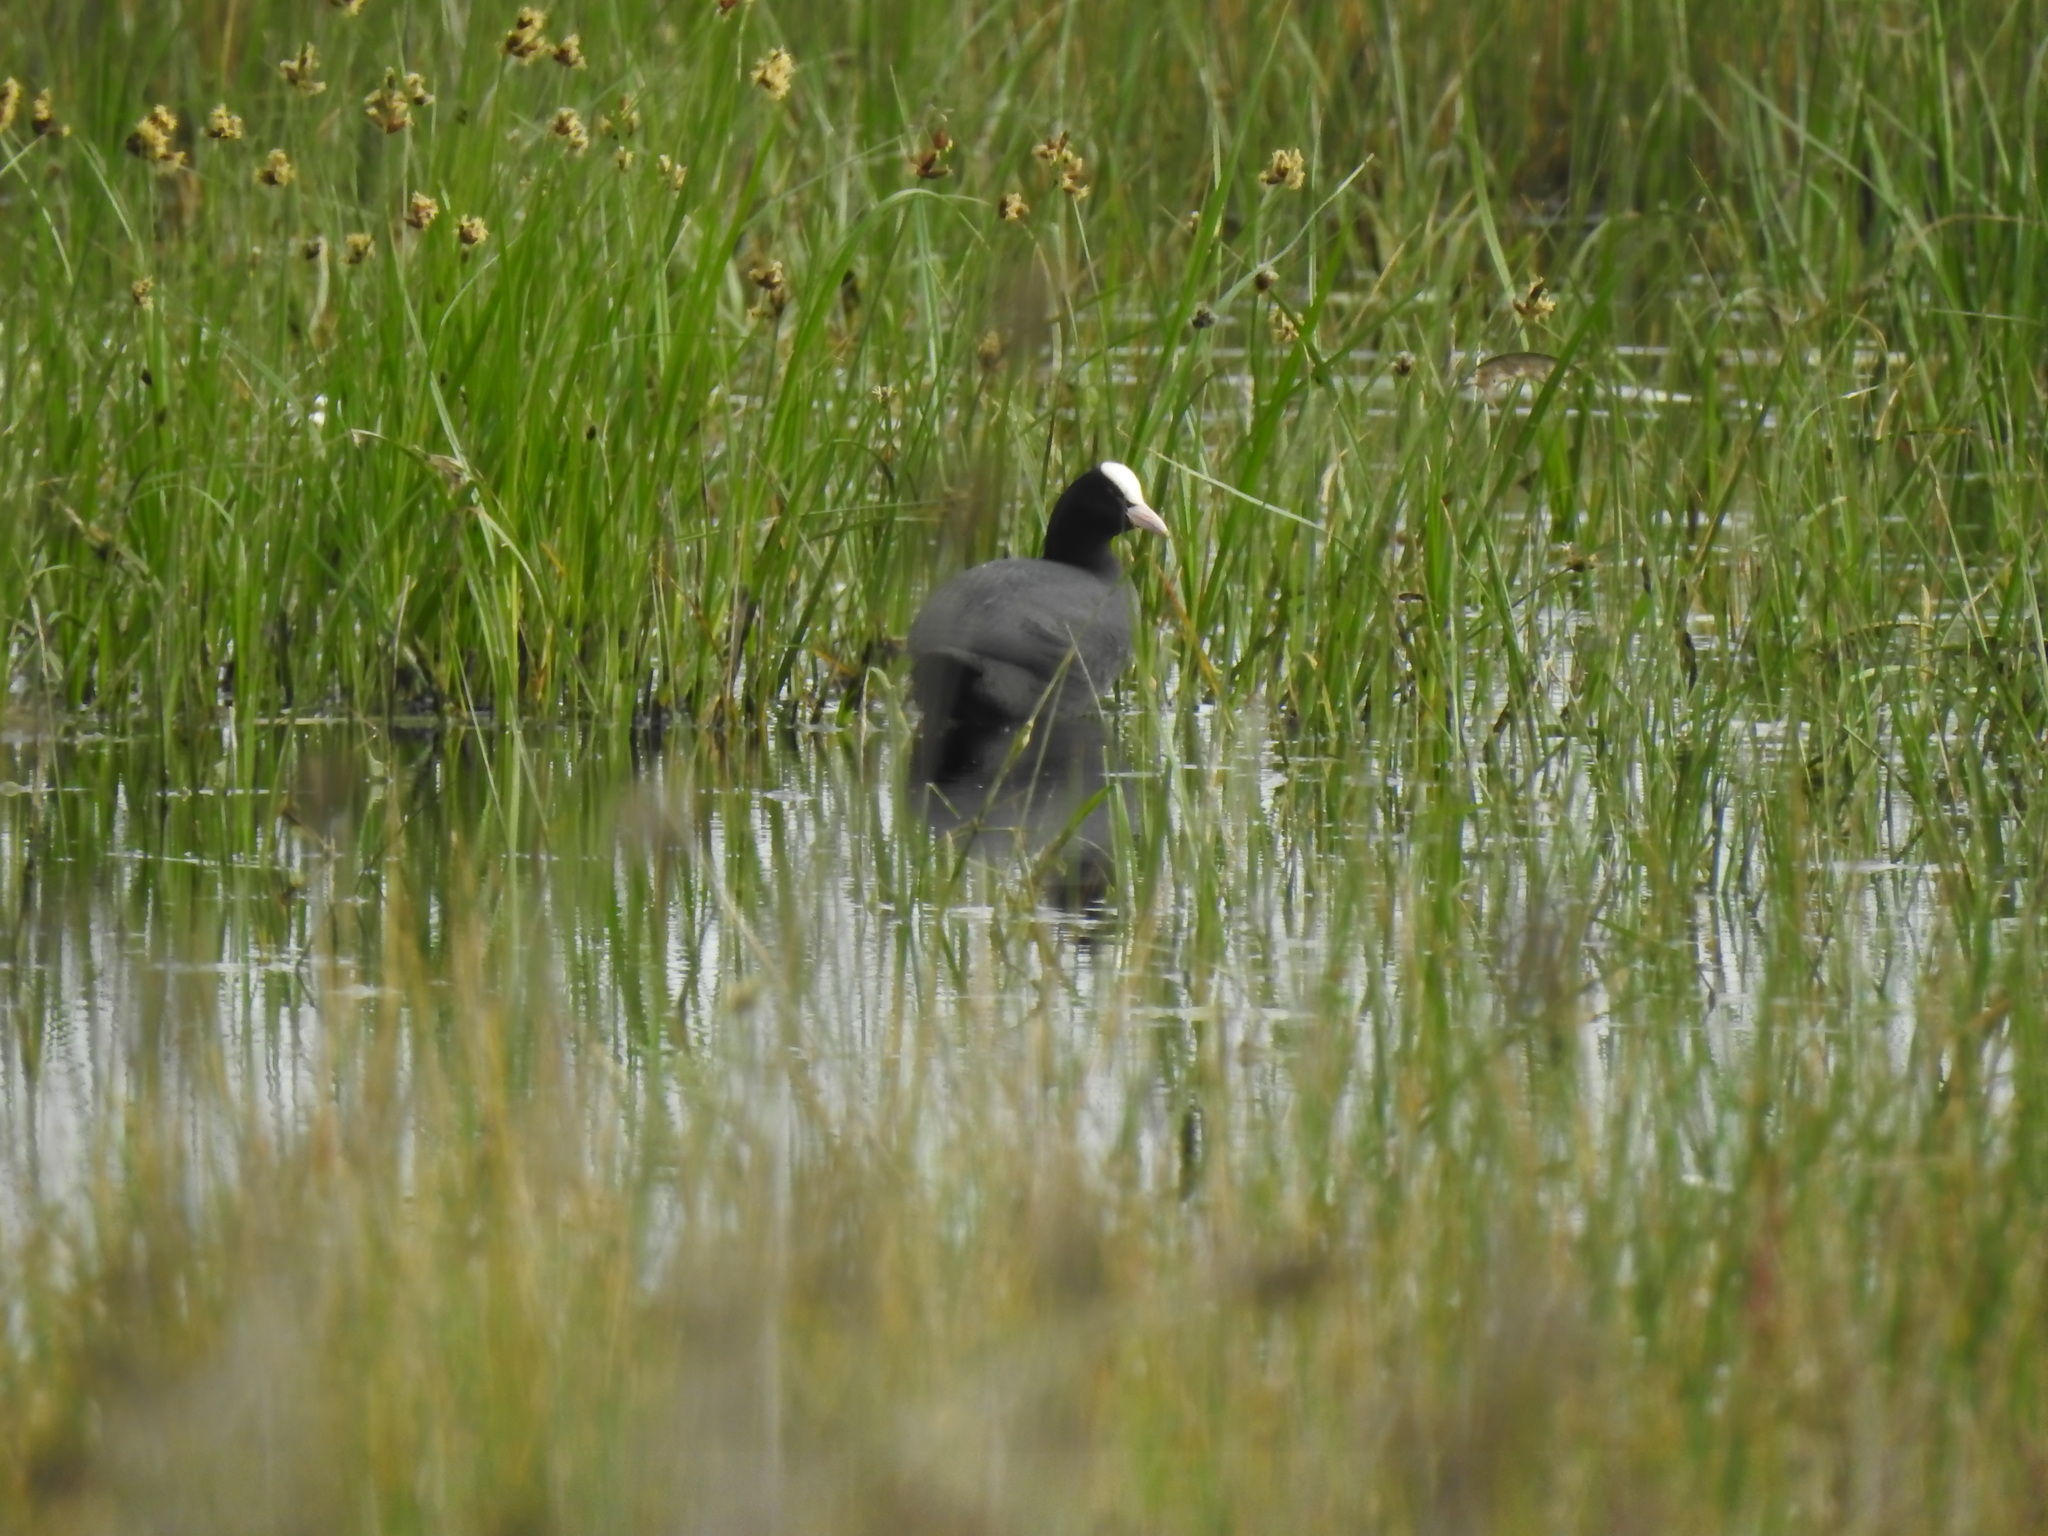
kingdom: Animalia
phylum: Chordata
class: Aves
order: Gruiformes
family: Rallidae
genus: Fulica
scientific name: Fulica atra
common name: Eurasian coot
